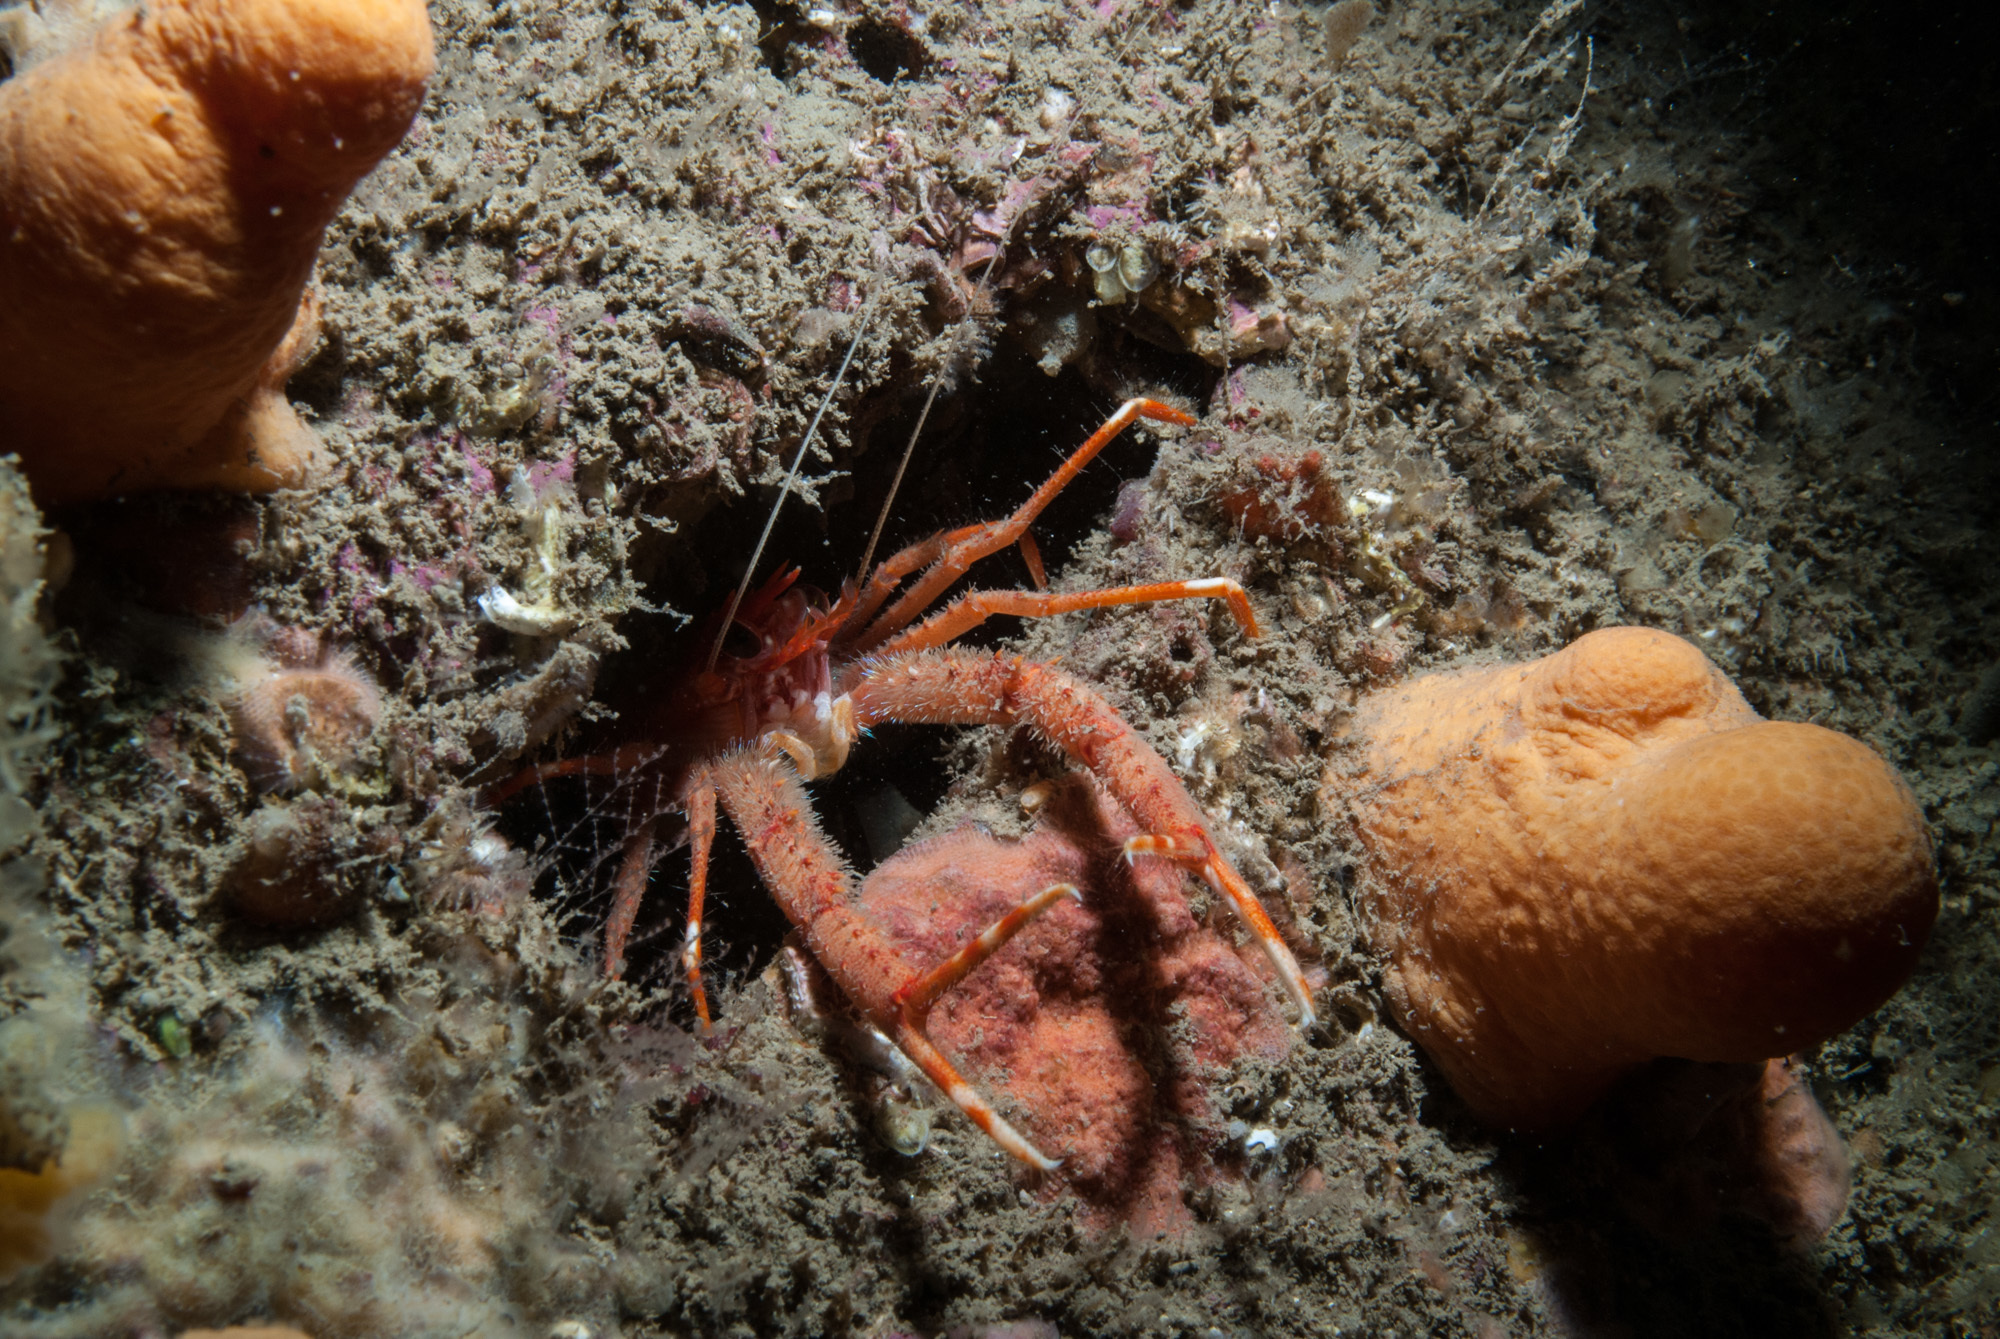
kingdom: Animalia
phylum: Arthropoda
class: Malacostraca
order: Decapoda
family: Munididae
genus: Munida
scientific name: Munida rugosa
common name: Rugose squat lobster
